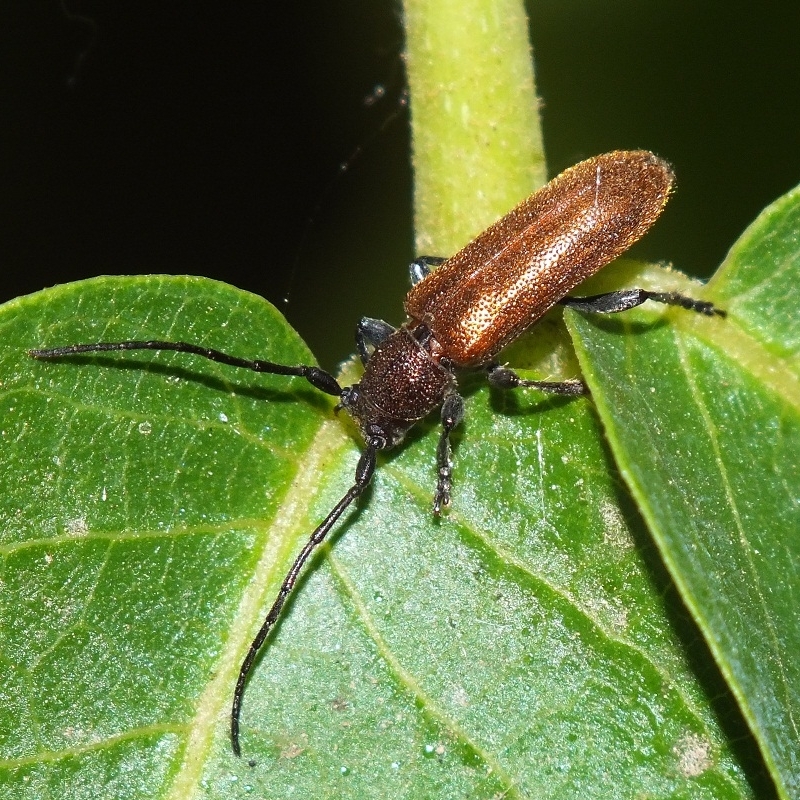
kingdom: Animalia
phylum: Arthropoda
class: Insecta
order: Coleoptera
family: Cerambycidae
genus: Anaesthetis
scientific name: Anaesthetis testacea
